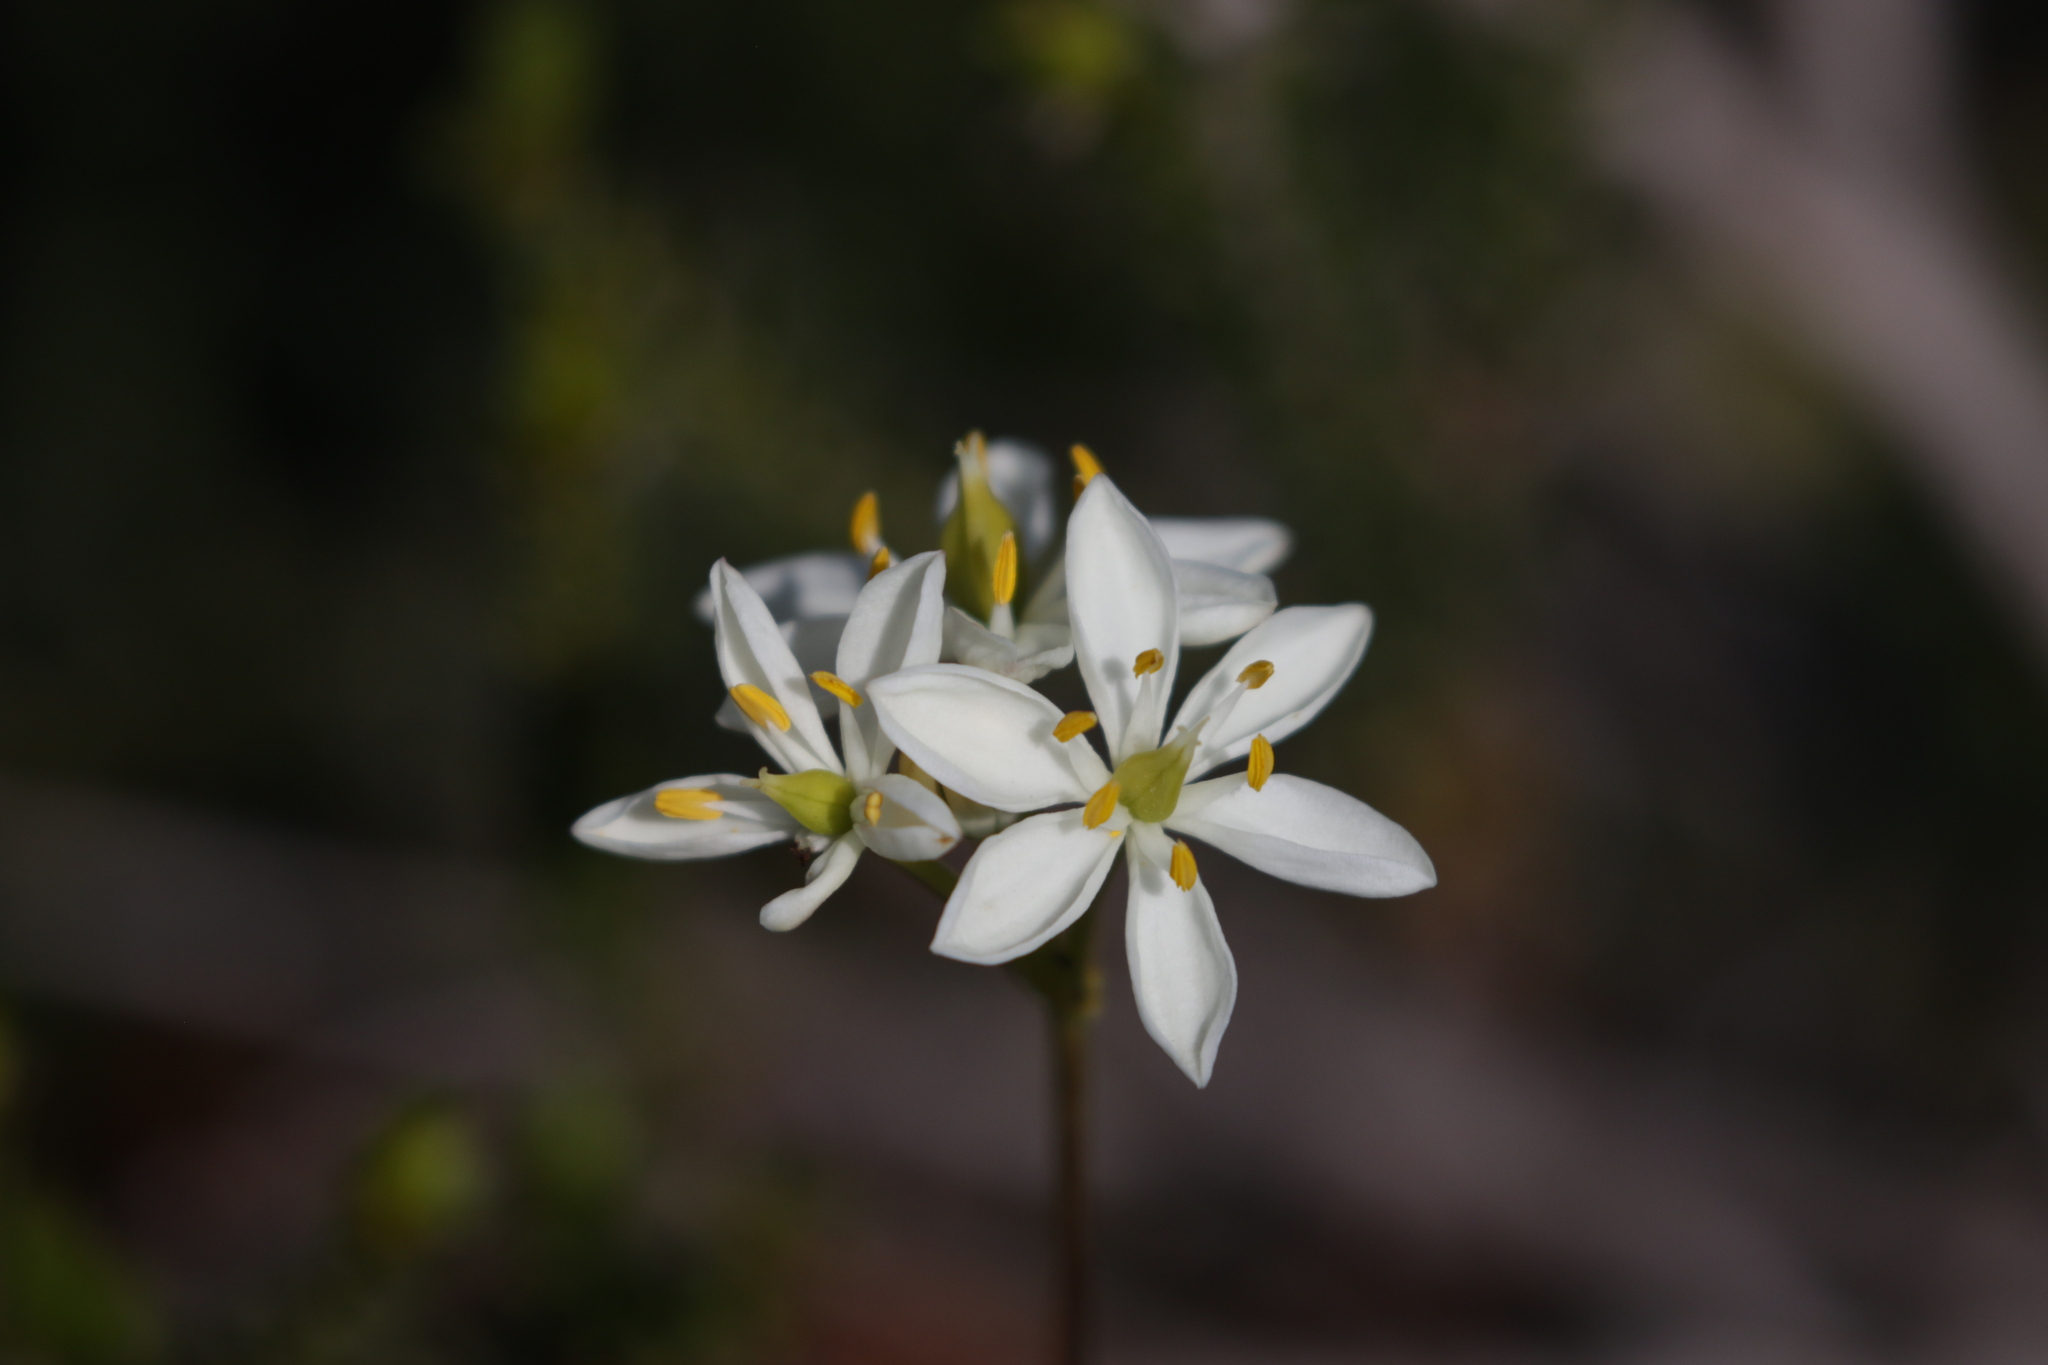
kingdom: Plantae
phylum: Tracheophyta
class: Liliopsida
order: Liliales
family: Colchicaceae
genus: Burchardia
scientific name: Burchardia congesta
